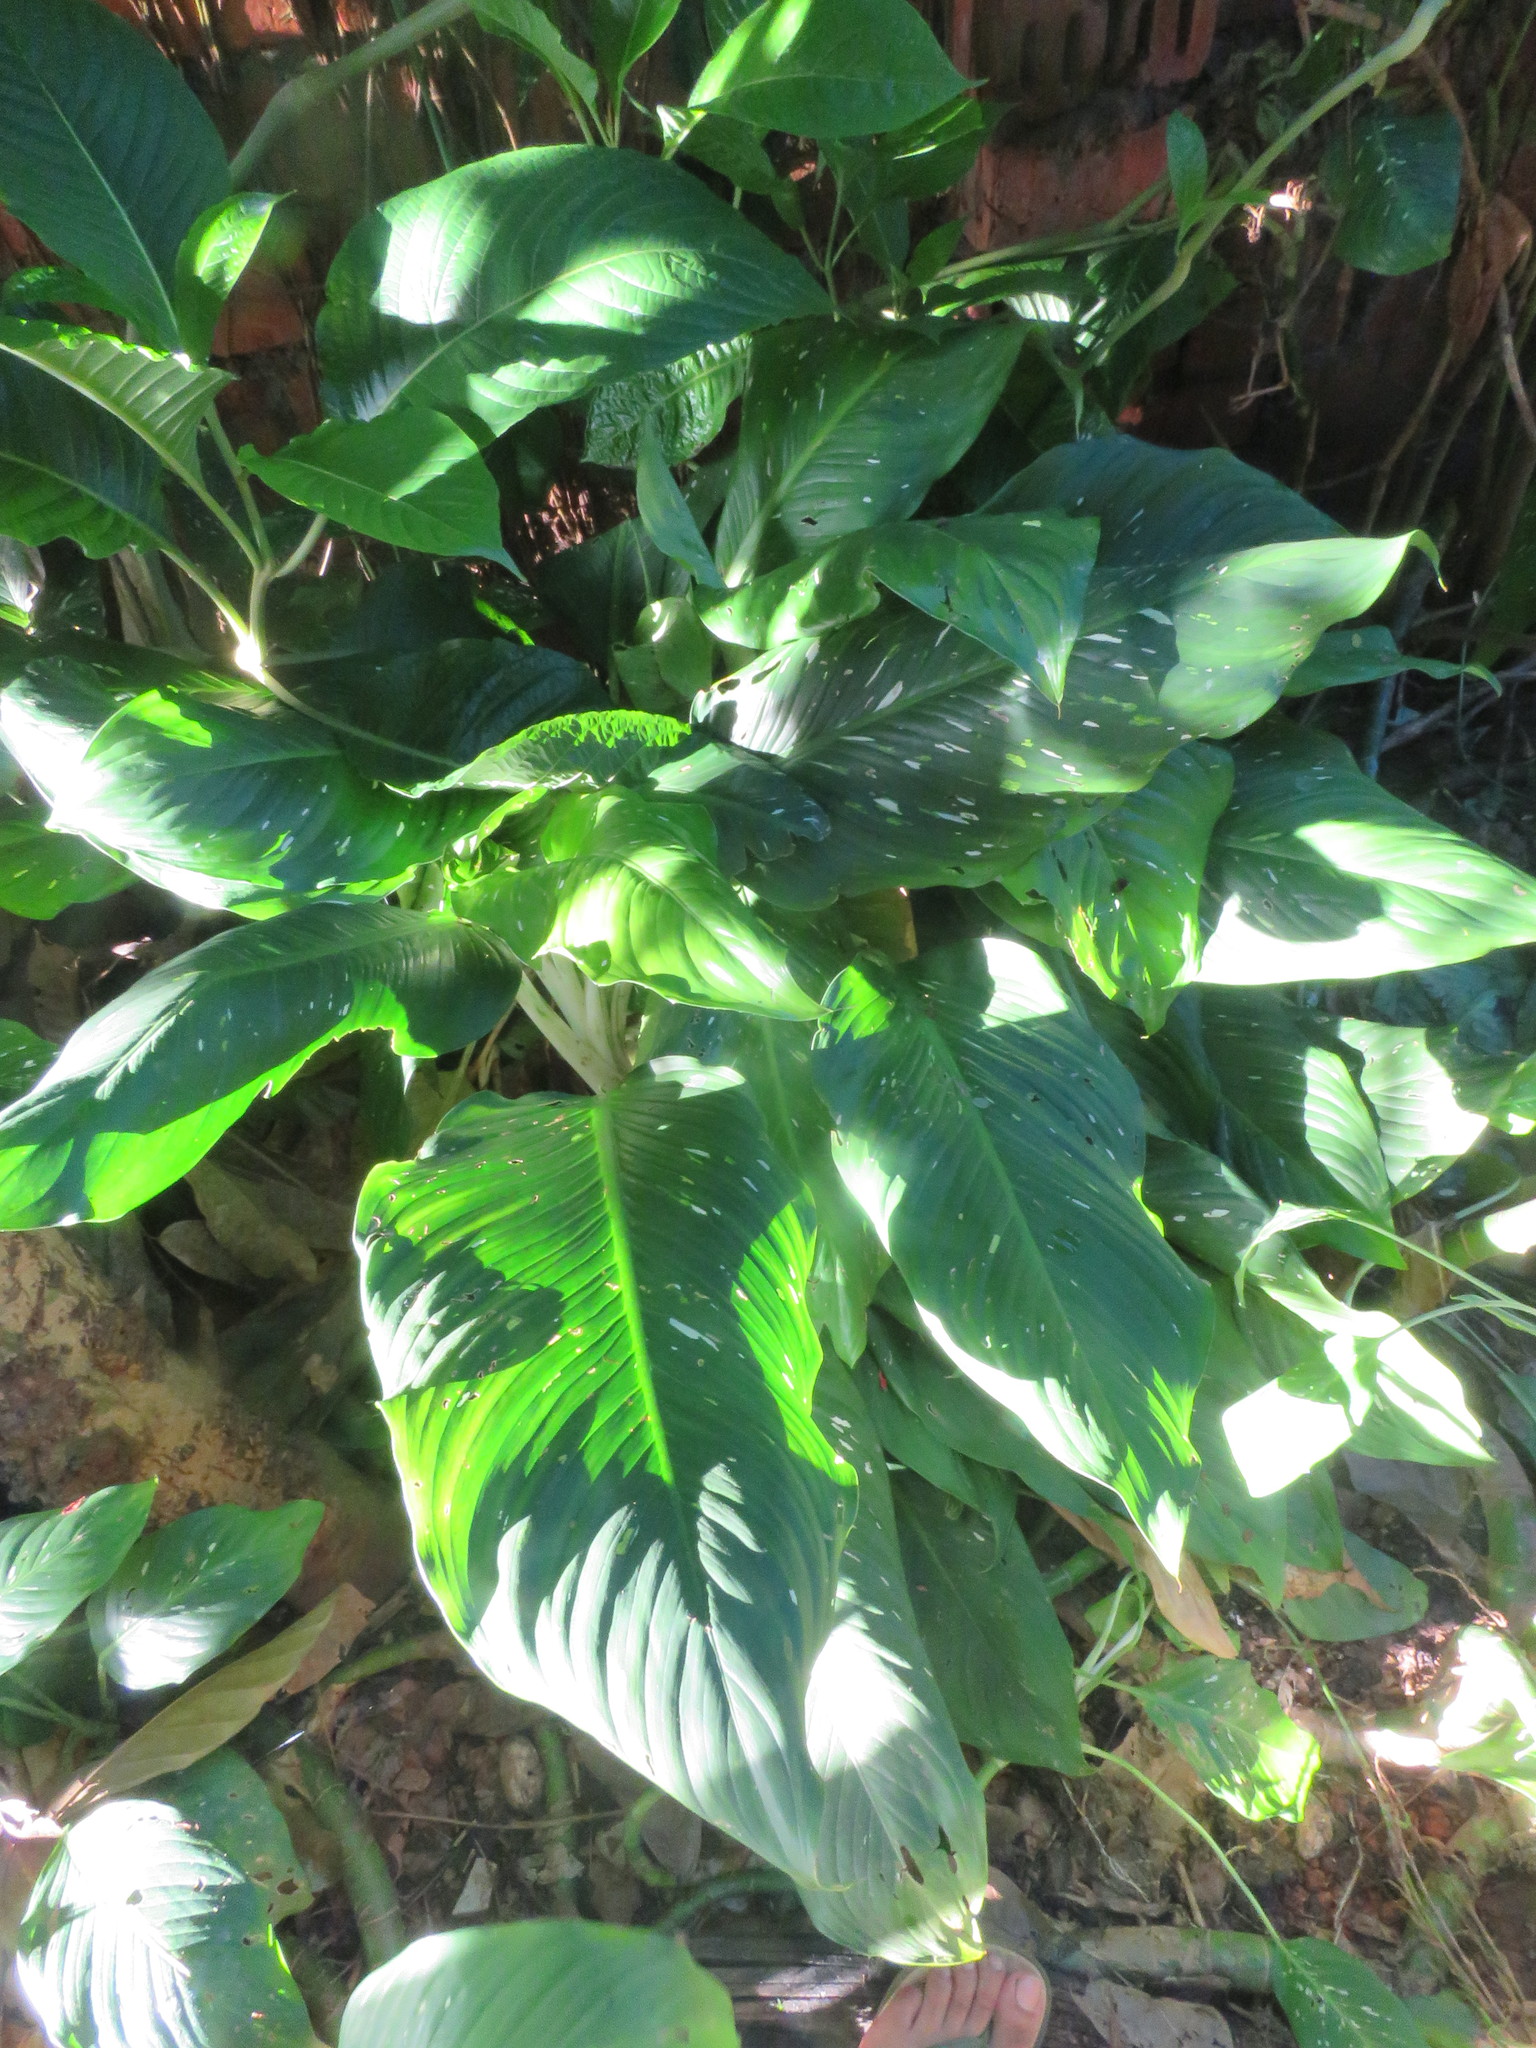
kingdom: Plantae
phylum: Tracheophyta
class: Liliopsida
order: Alismatales
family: Araceae
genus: Dieffenbachia
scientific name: Dieffenbachia seguine
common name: Dumbcane
